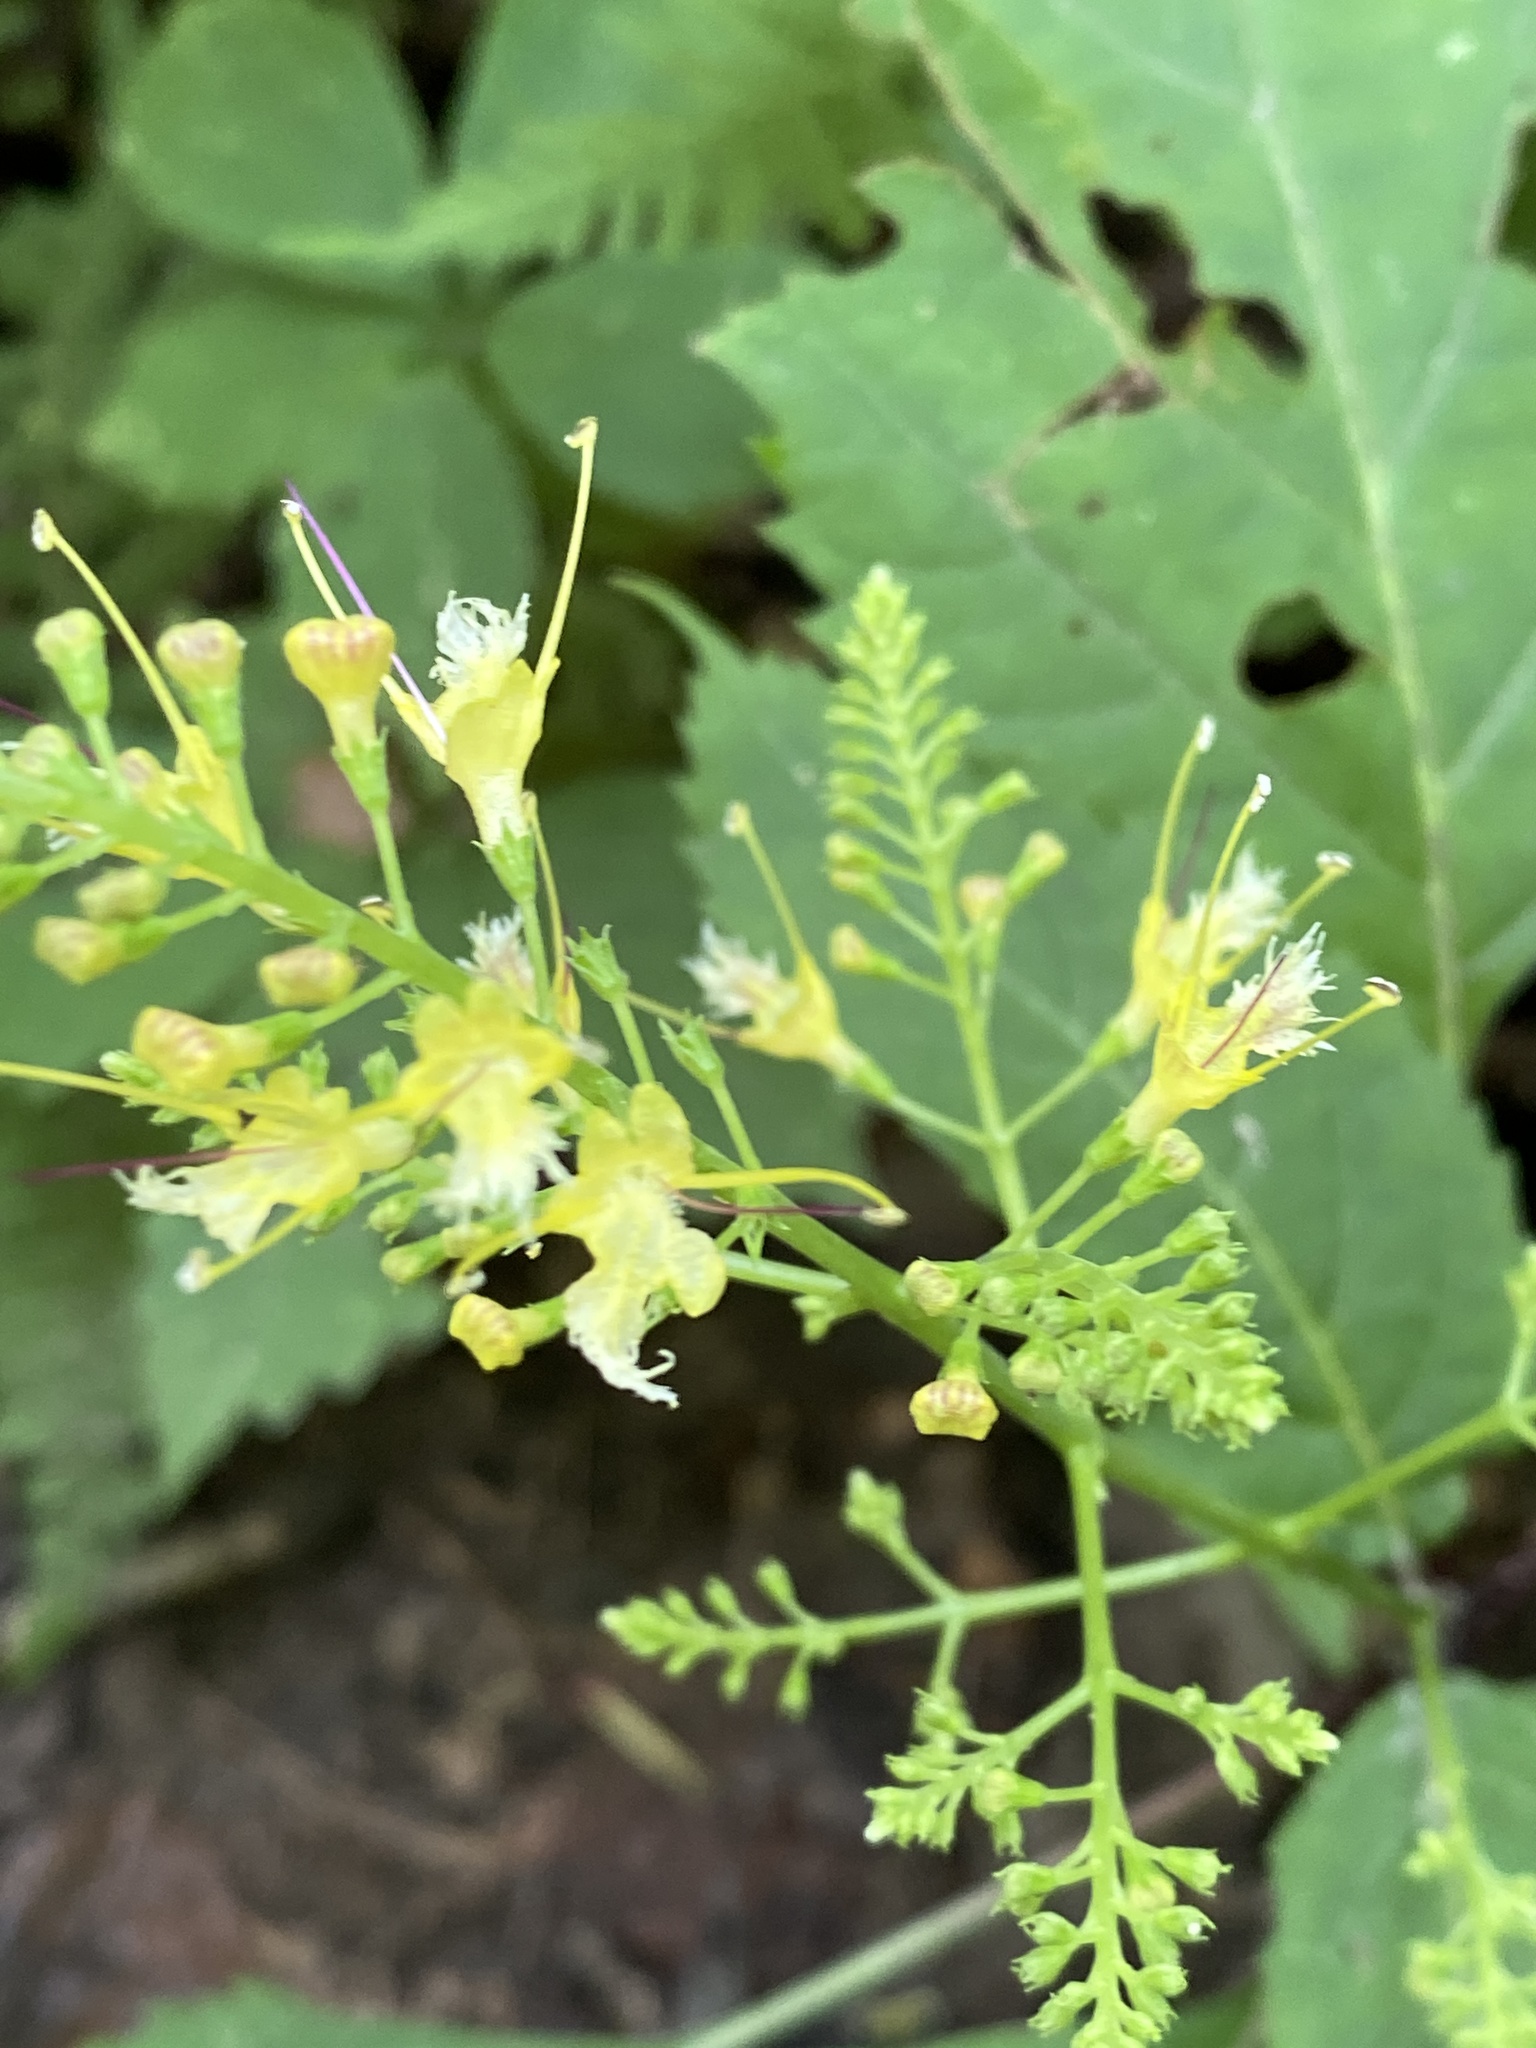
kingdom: Plantae
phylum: Tracheophyta
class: Magnoliopsida
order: Lamiales
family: Lamiaceae
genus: Collinsonia
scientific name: Collinsonia canadensis
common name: Northern horsebalm
